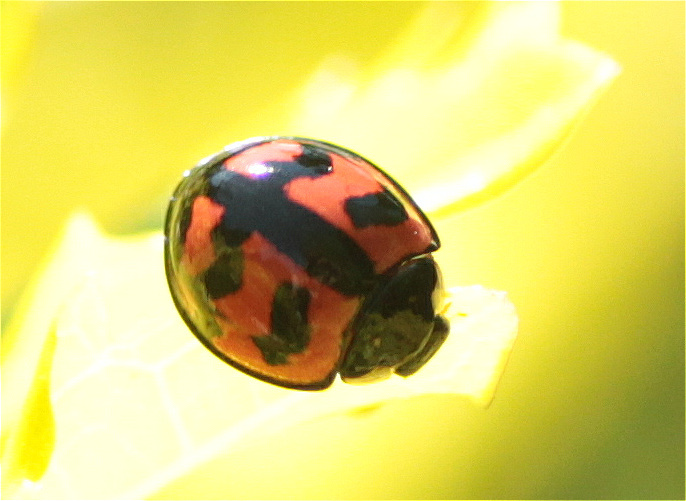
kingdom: Animalia
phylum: Arthropoda
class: Insecta
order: Coleoptera
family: Coccinellidae
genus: Cheilomenes
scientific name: Cheilomenes sexmaculata
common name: Ladybird beetle
